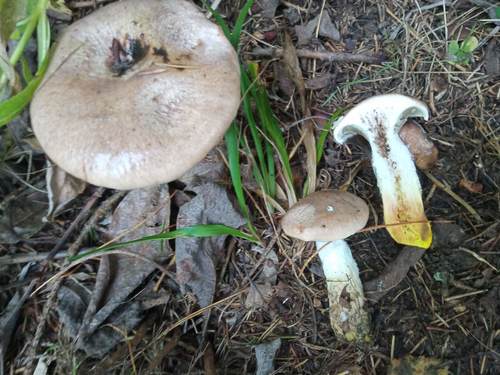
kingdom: Fungi
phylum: Basidiomycota
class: Agaricomycetes
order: Boletales
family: Gomphidiaceae
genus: Gomphidius
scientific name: Gomphidius glutinosus
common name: Slimy spike
